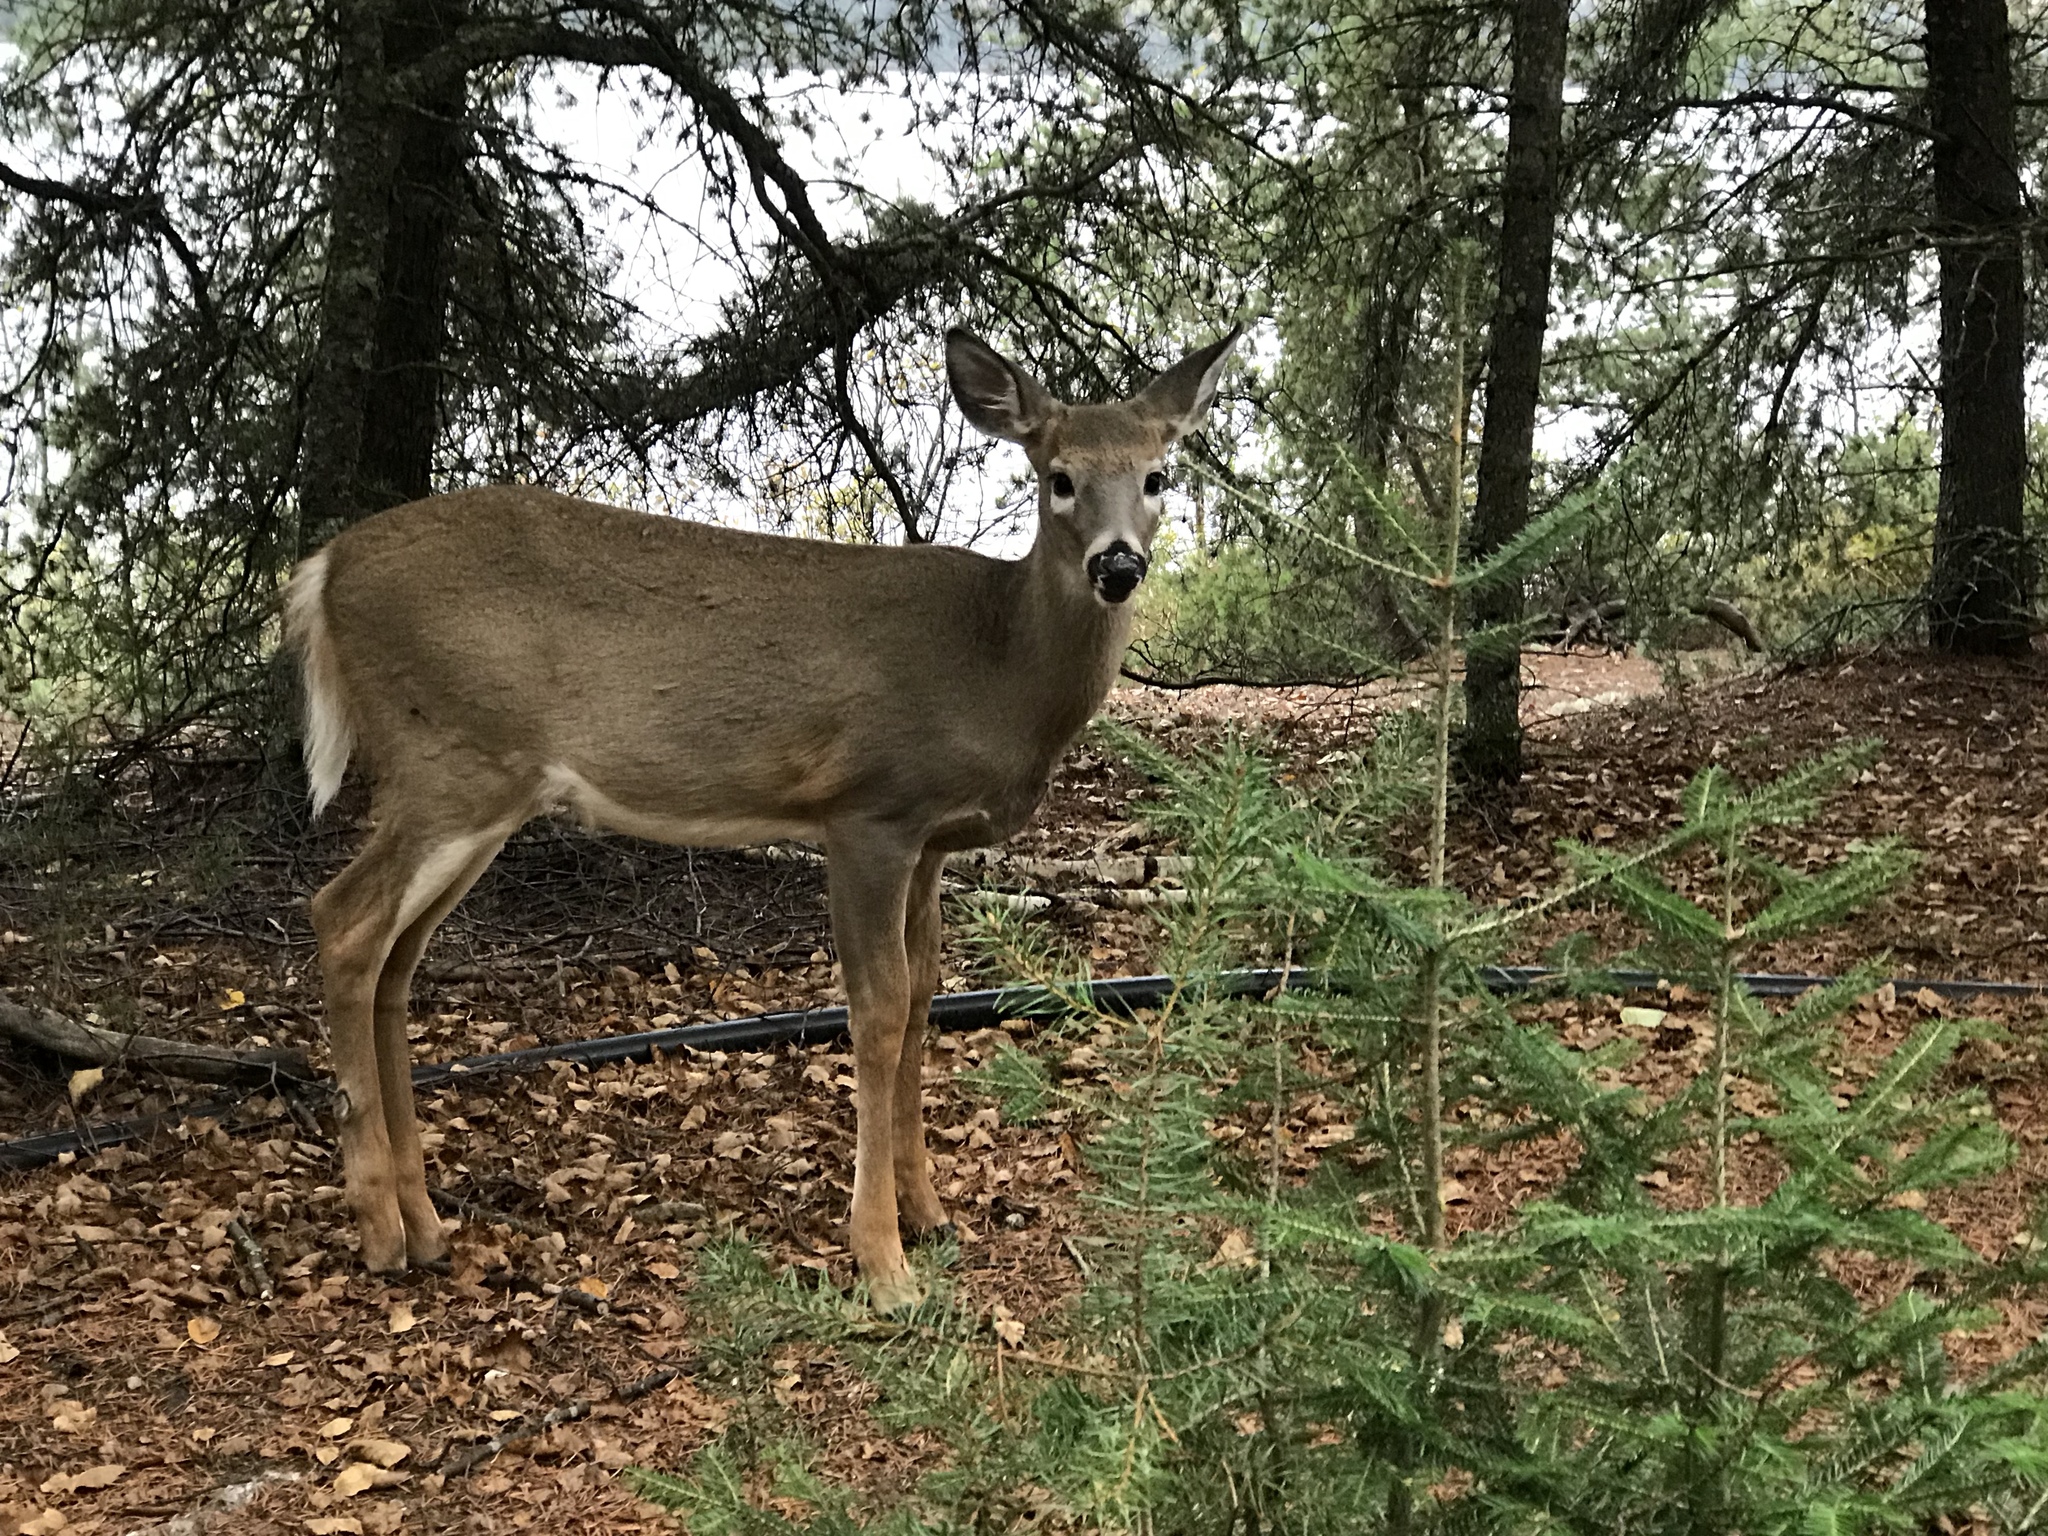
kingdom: Animalia
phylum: Chordata
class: Mammalia
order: Artiodactyla
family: Cervidae
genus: Odocoileus
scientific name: Odocoileus virginianus
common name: White-tailed deer
